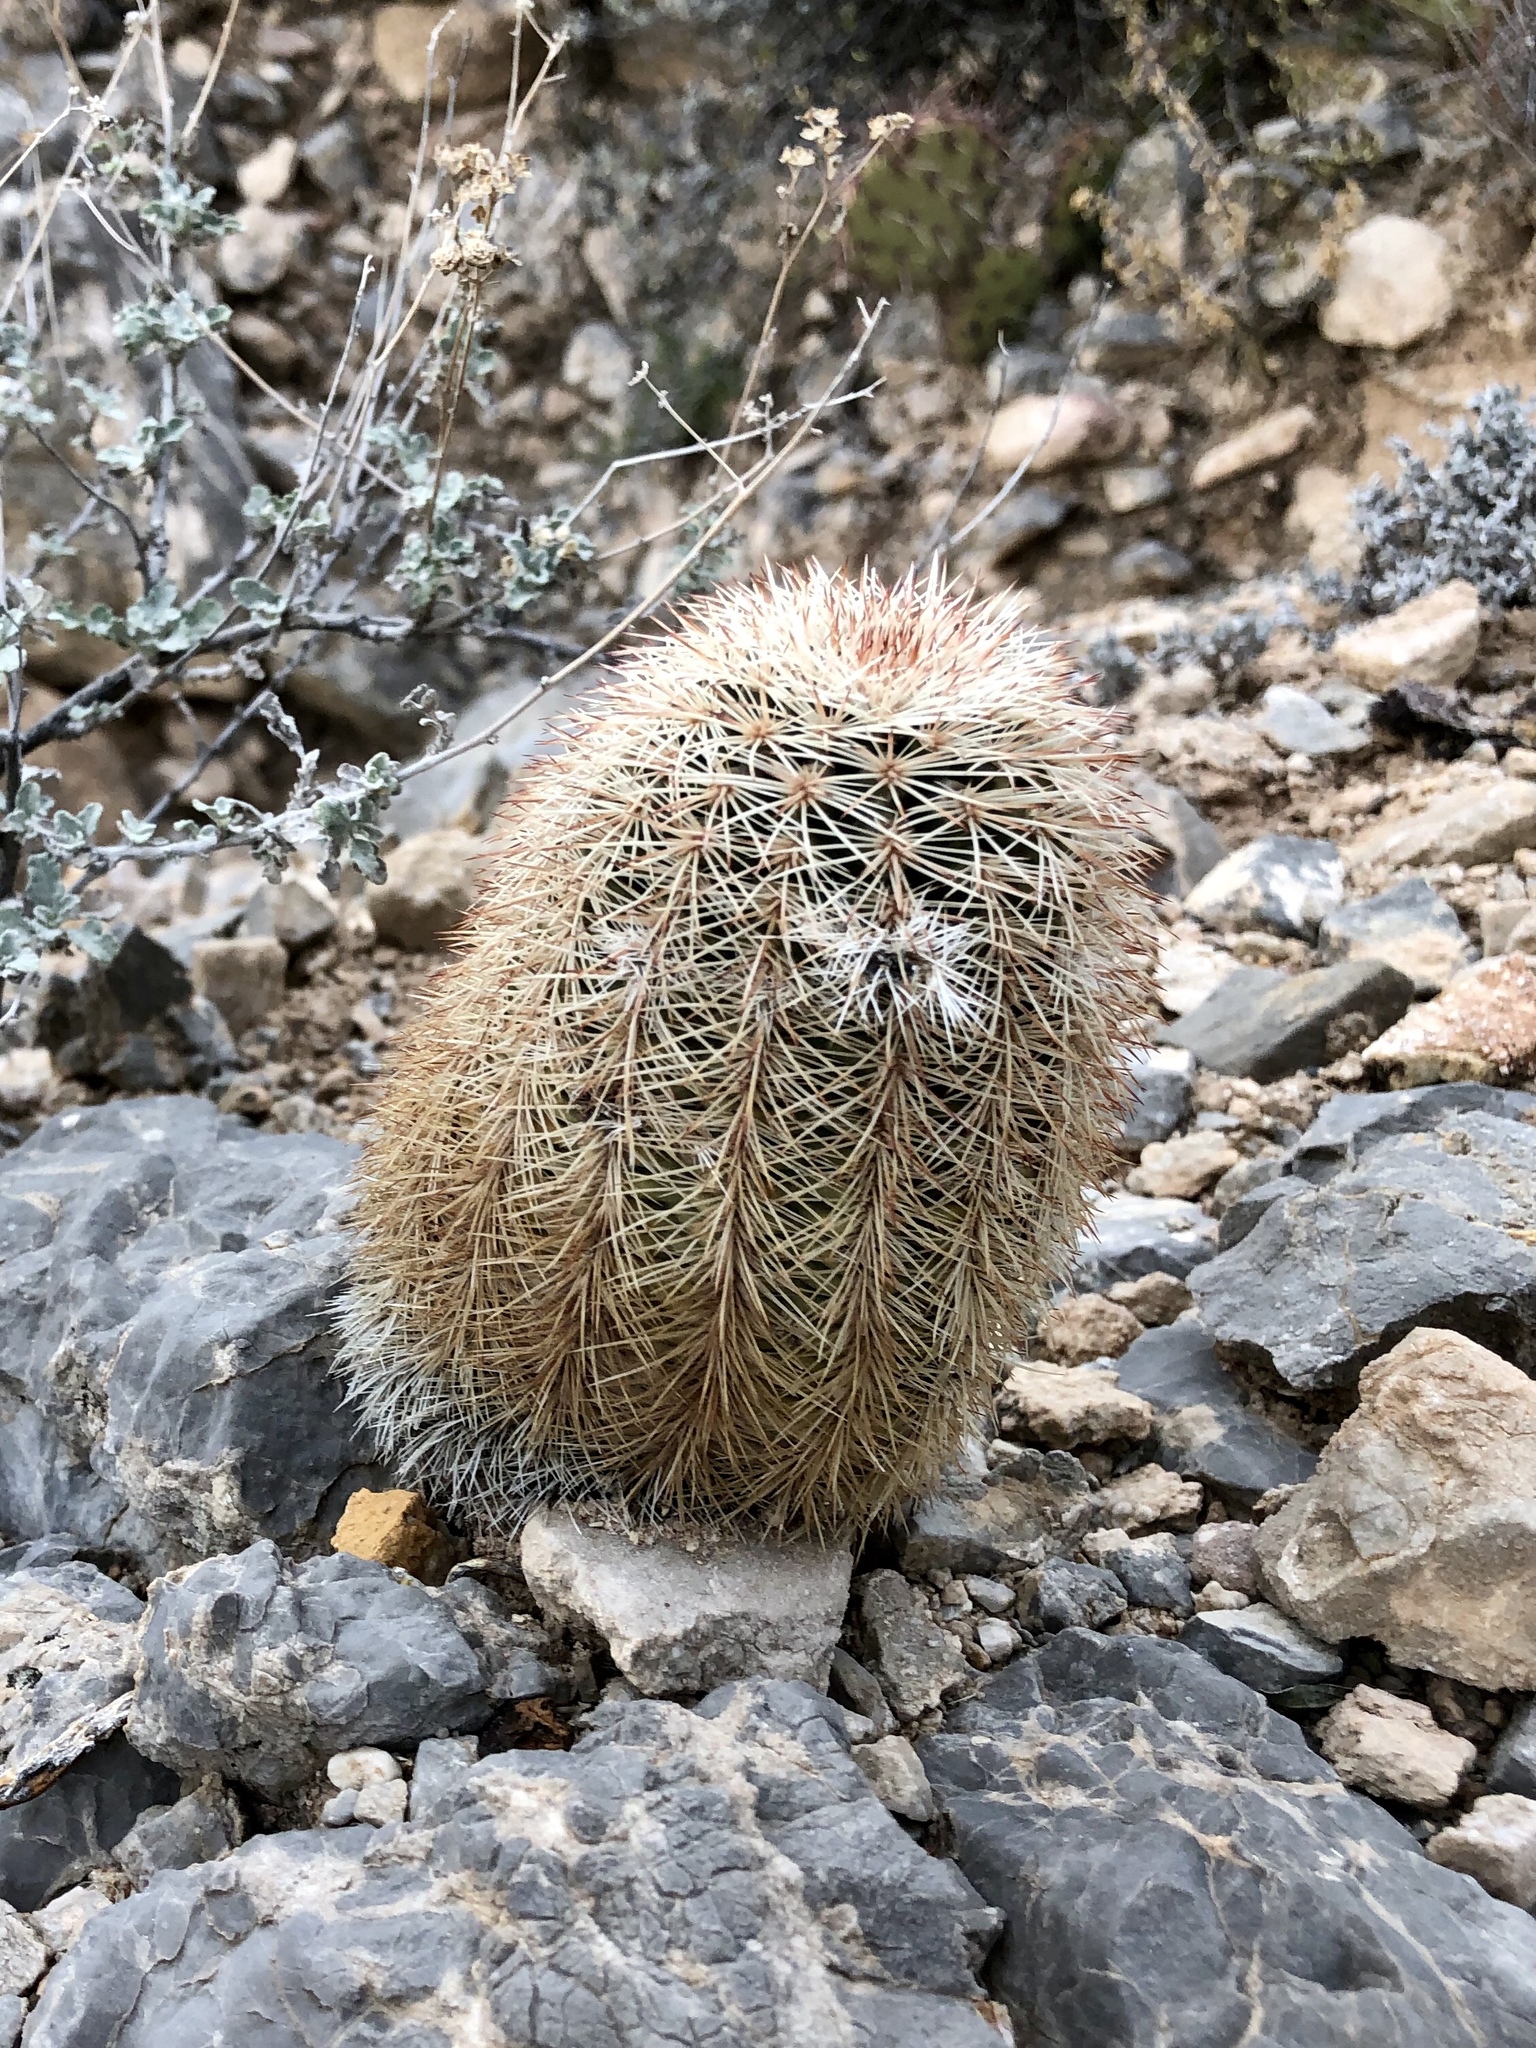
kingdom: Plantae
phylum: Tracheophyta
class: Magnoliopsida
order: Caryophyllales
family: Cactaceae
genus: Echinocereus
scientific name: Echinocereus dasyacanthus
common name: Spiny hedgehog cactus
